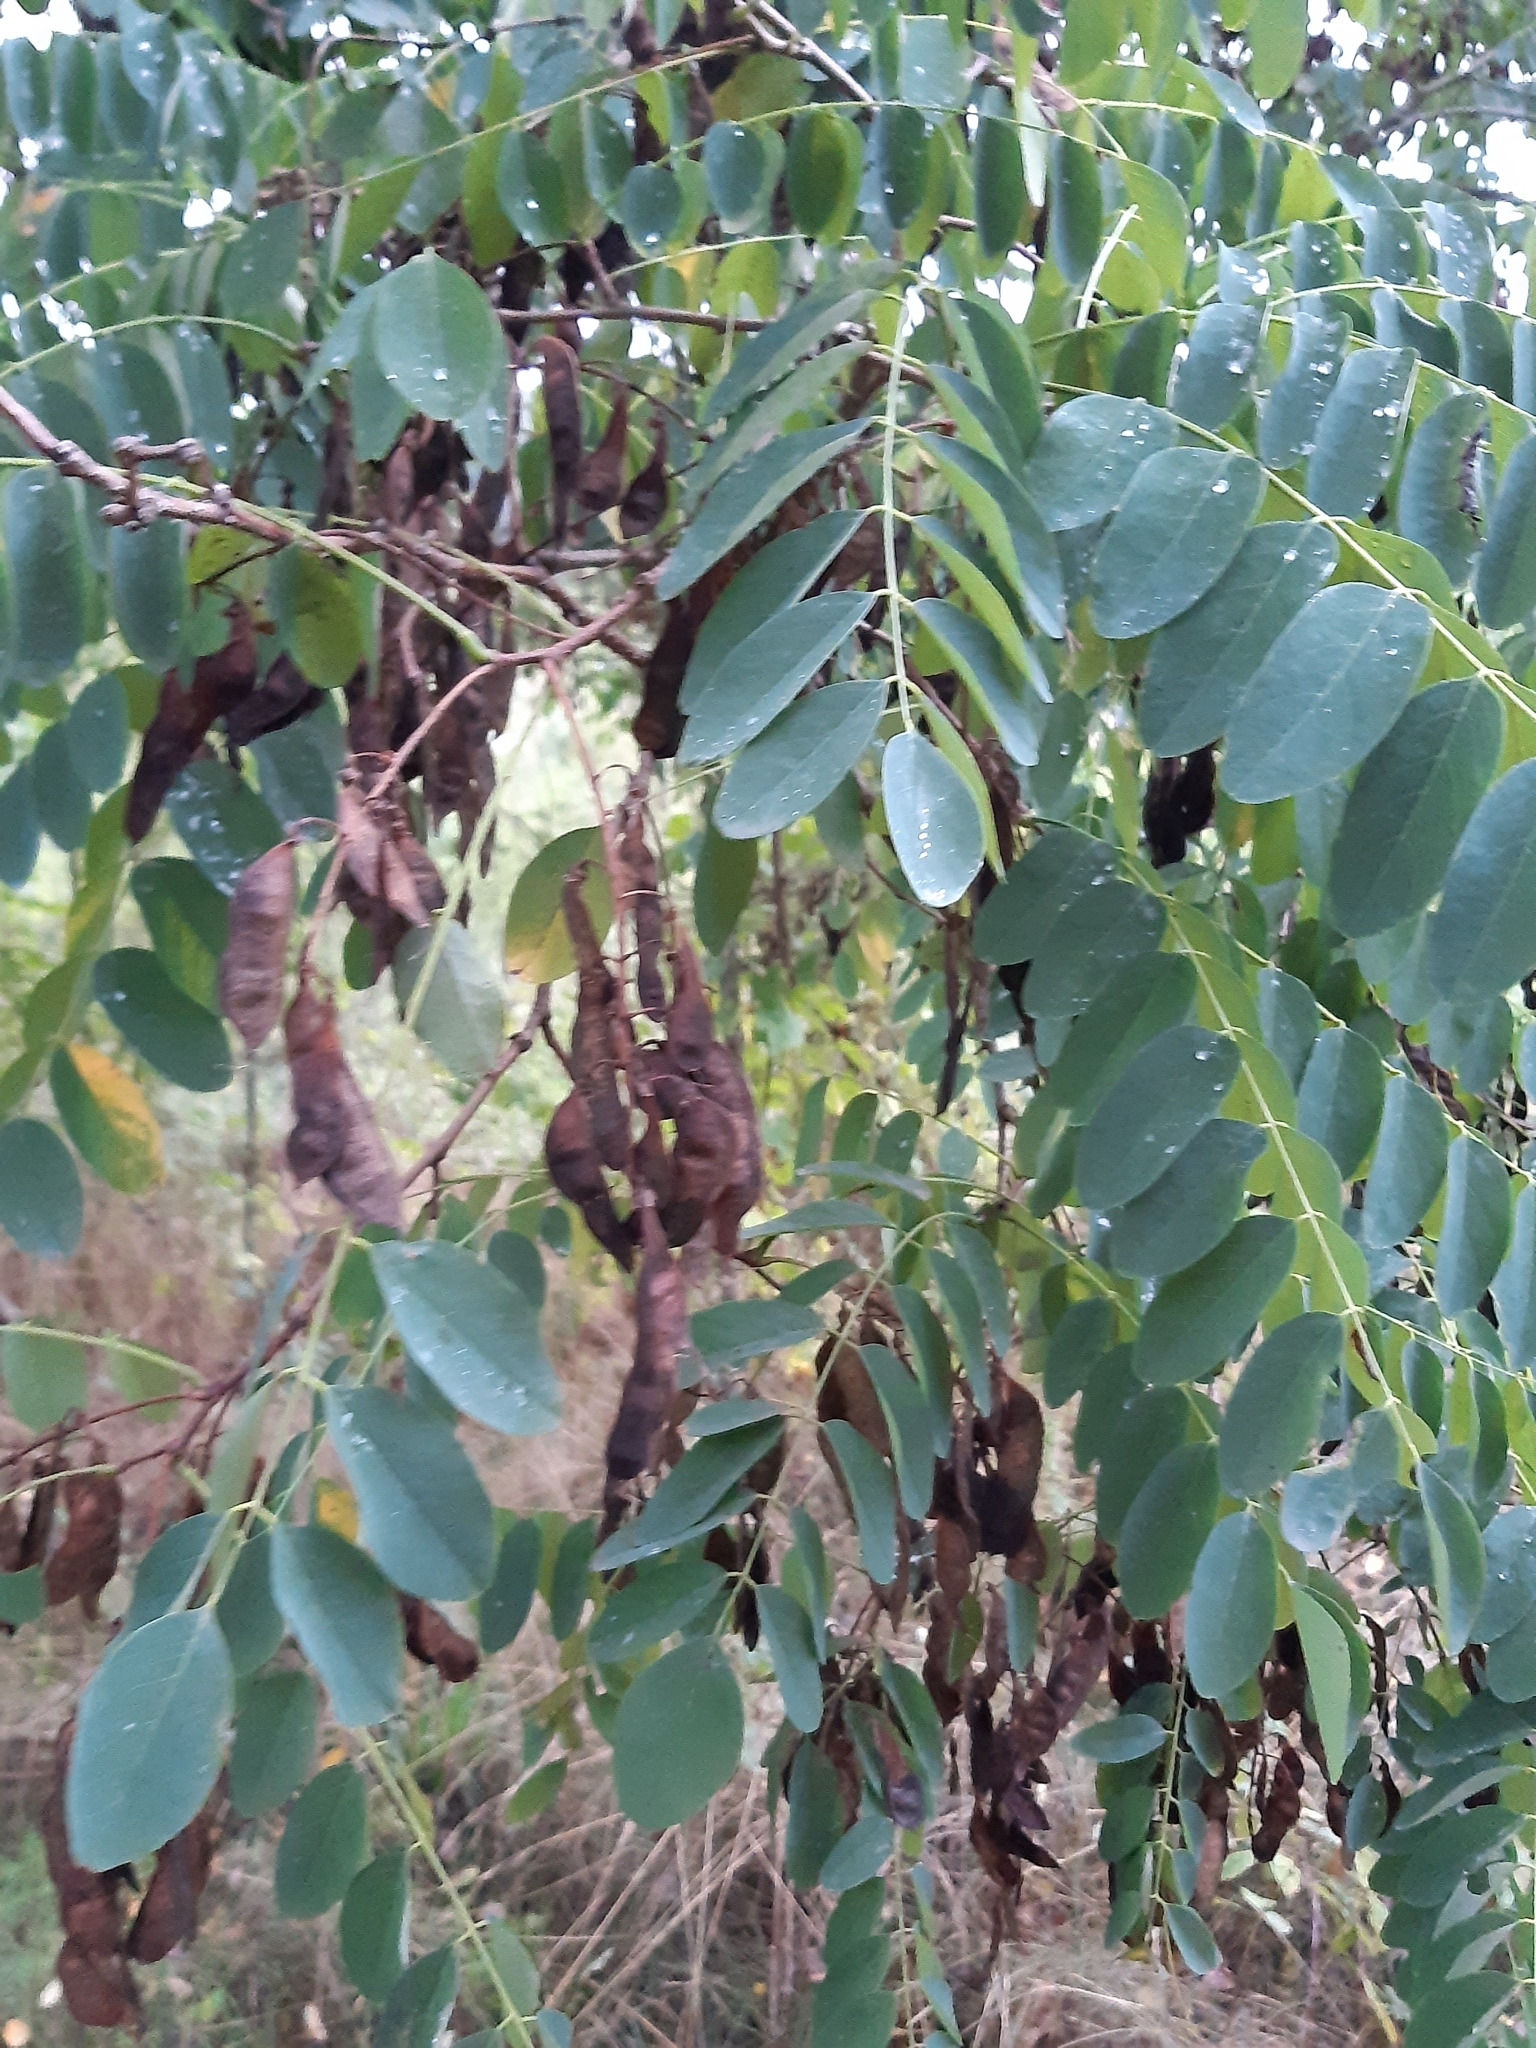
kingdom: Plantae
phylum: Tracheophyta
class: Magnoliopsida
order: Fabales
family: Fabaceae
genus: Robinia
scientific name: Robinia pseudoacacia
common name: Black locust
